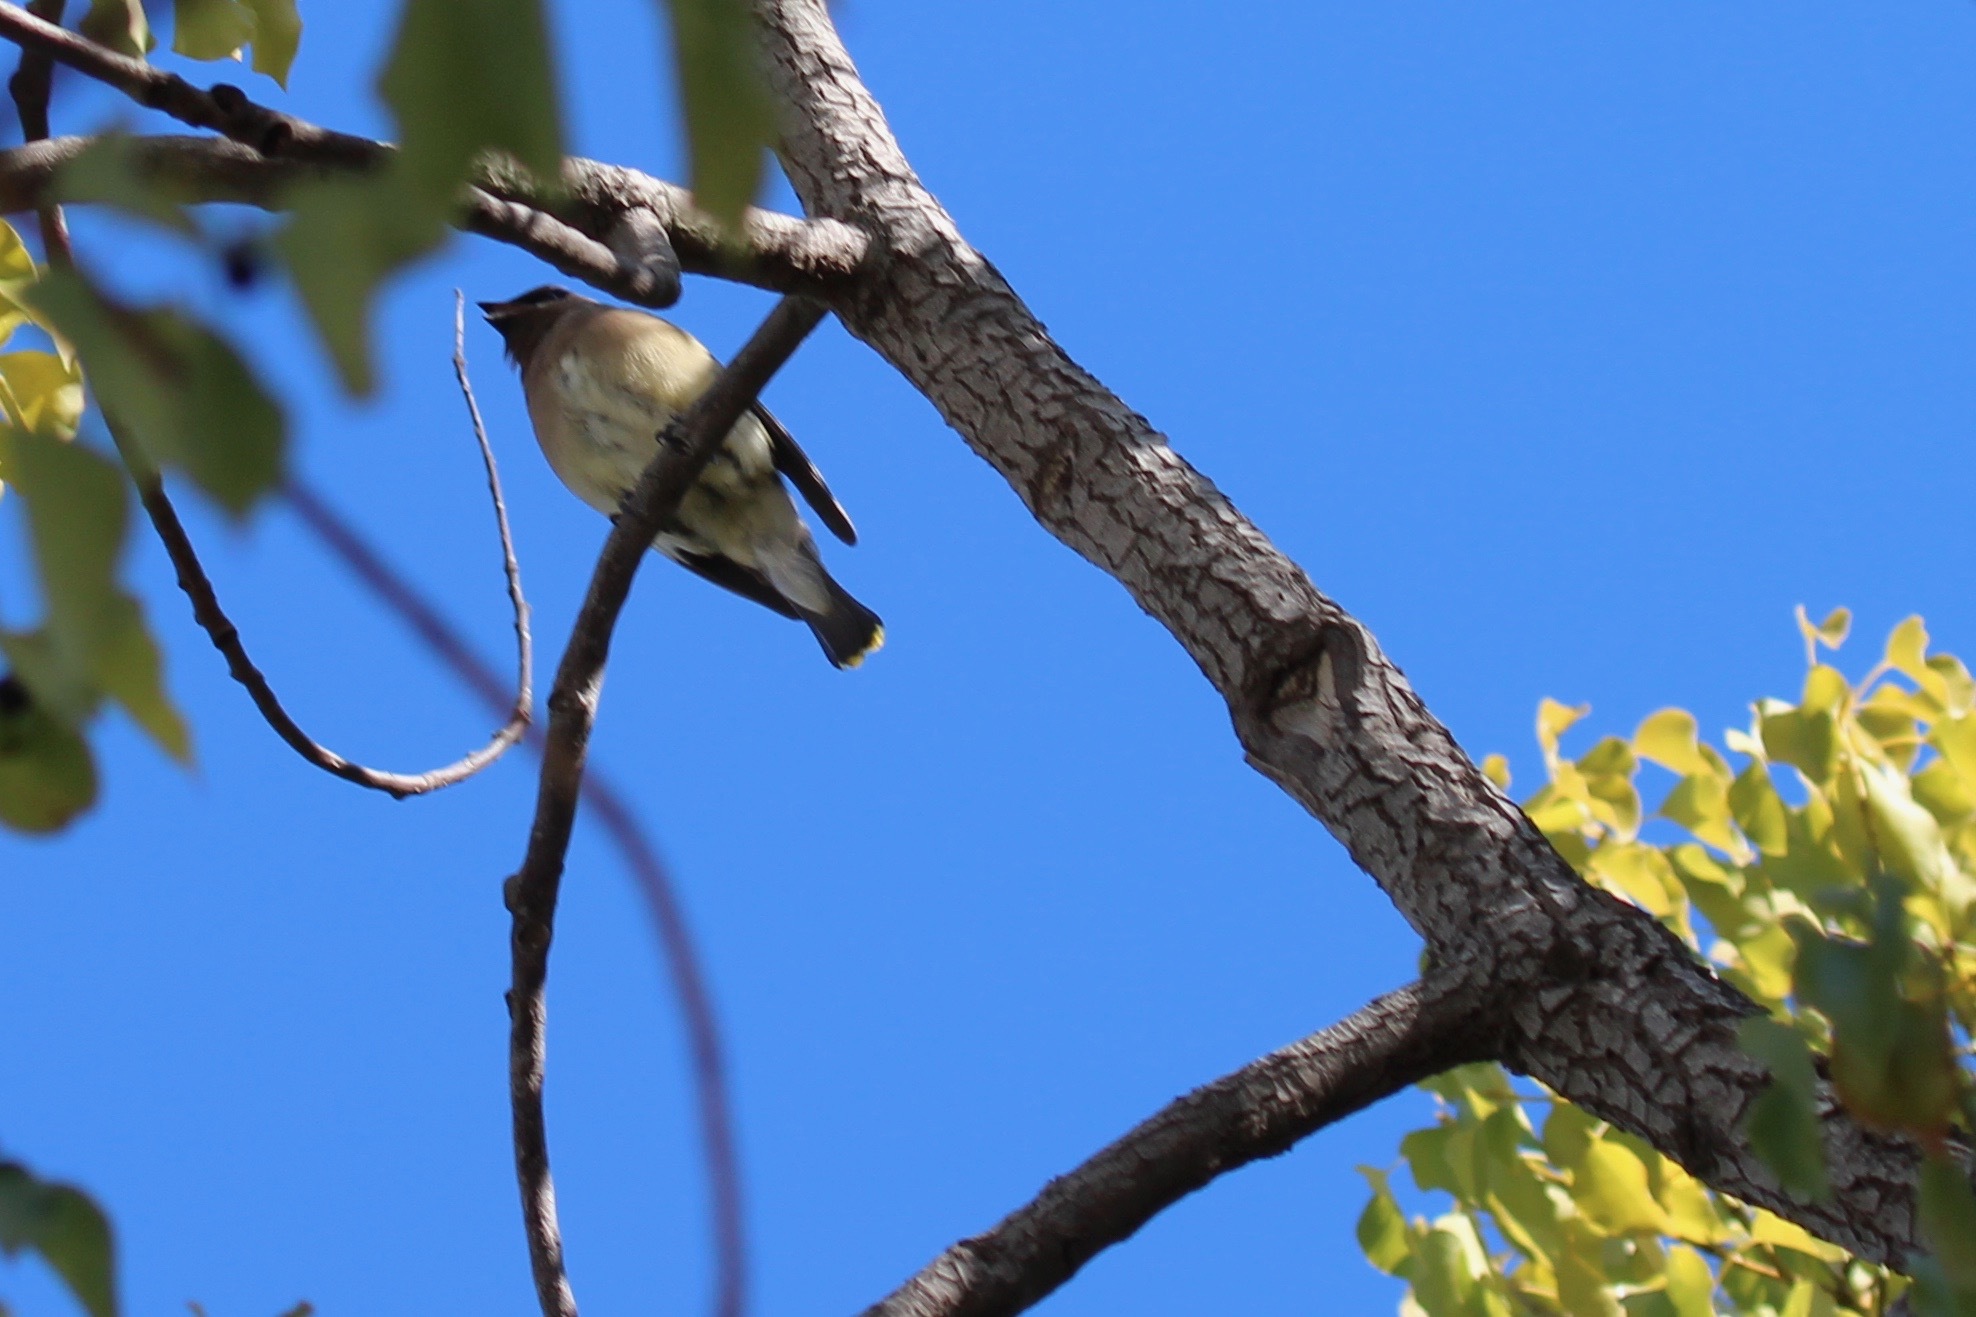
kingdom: Animalia
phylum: Chordata
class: Aves
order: Passeriformes
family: Bombycillidae
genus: Bombycilla
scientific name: Bombycilla cedrorum
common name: Cedar waxwing
